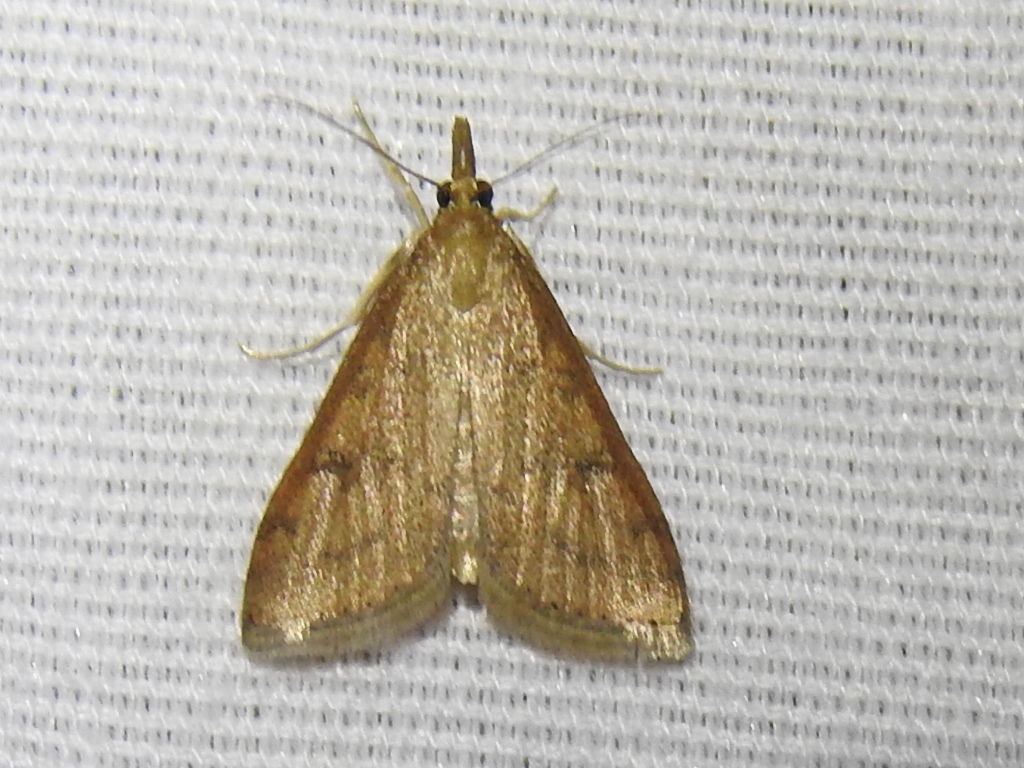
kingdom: Animalia
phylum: Arthropoda
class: Insecta
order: Lepidoptera
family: Crambidae
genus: Udea
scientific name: Udea rubigalis
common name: Celery leaftier moth
